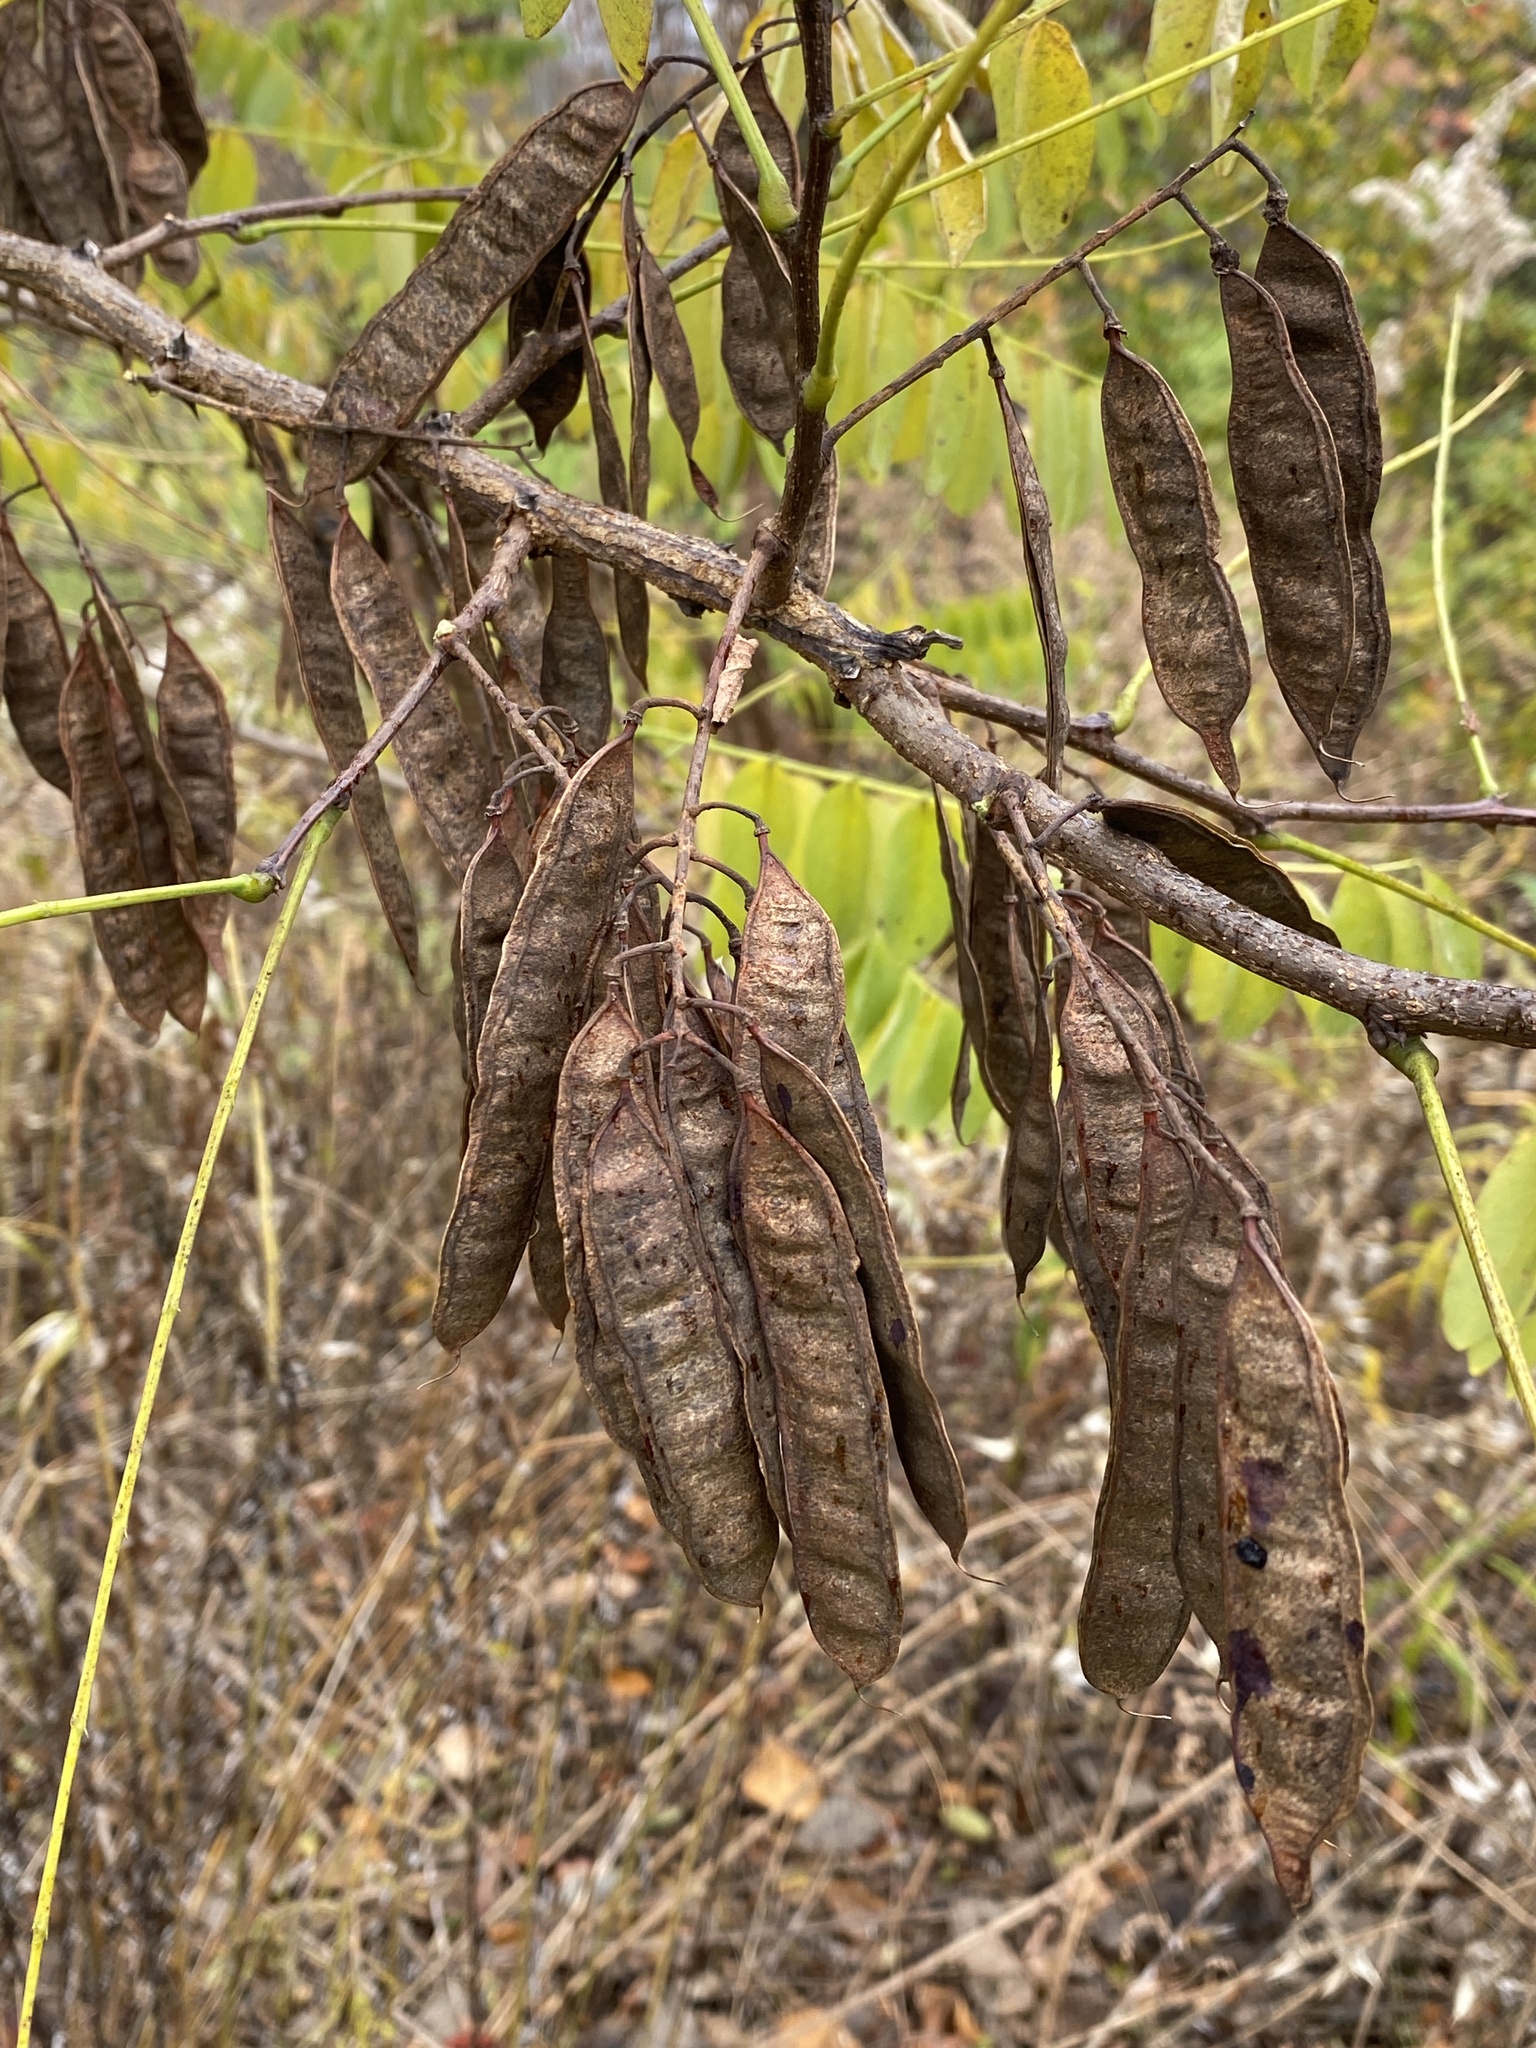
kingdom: Plantae
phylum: Tracheophyta
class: Magnoliopsida
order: Fabales
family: Fabaceae
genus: Robinia
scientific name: Robinia pseudoacacia
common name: Black locust
